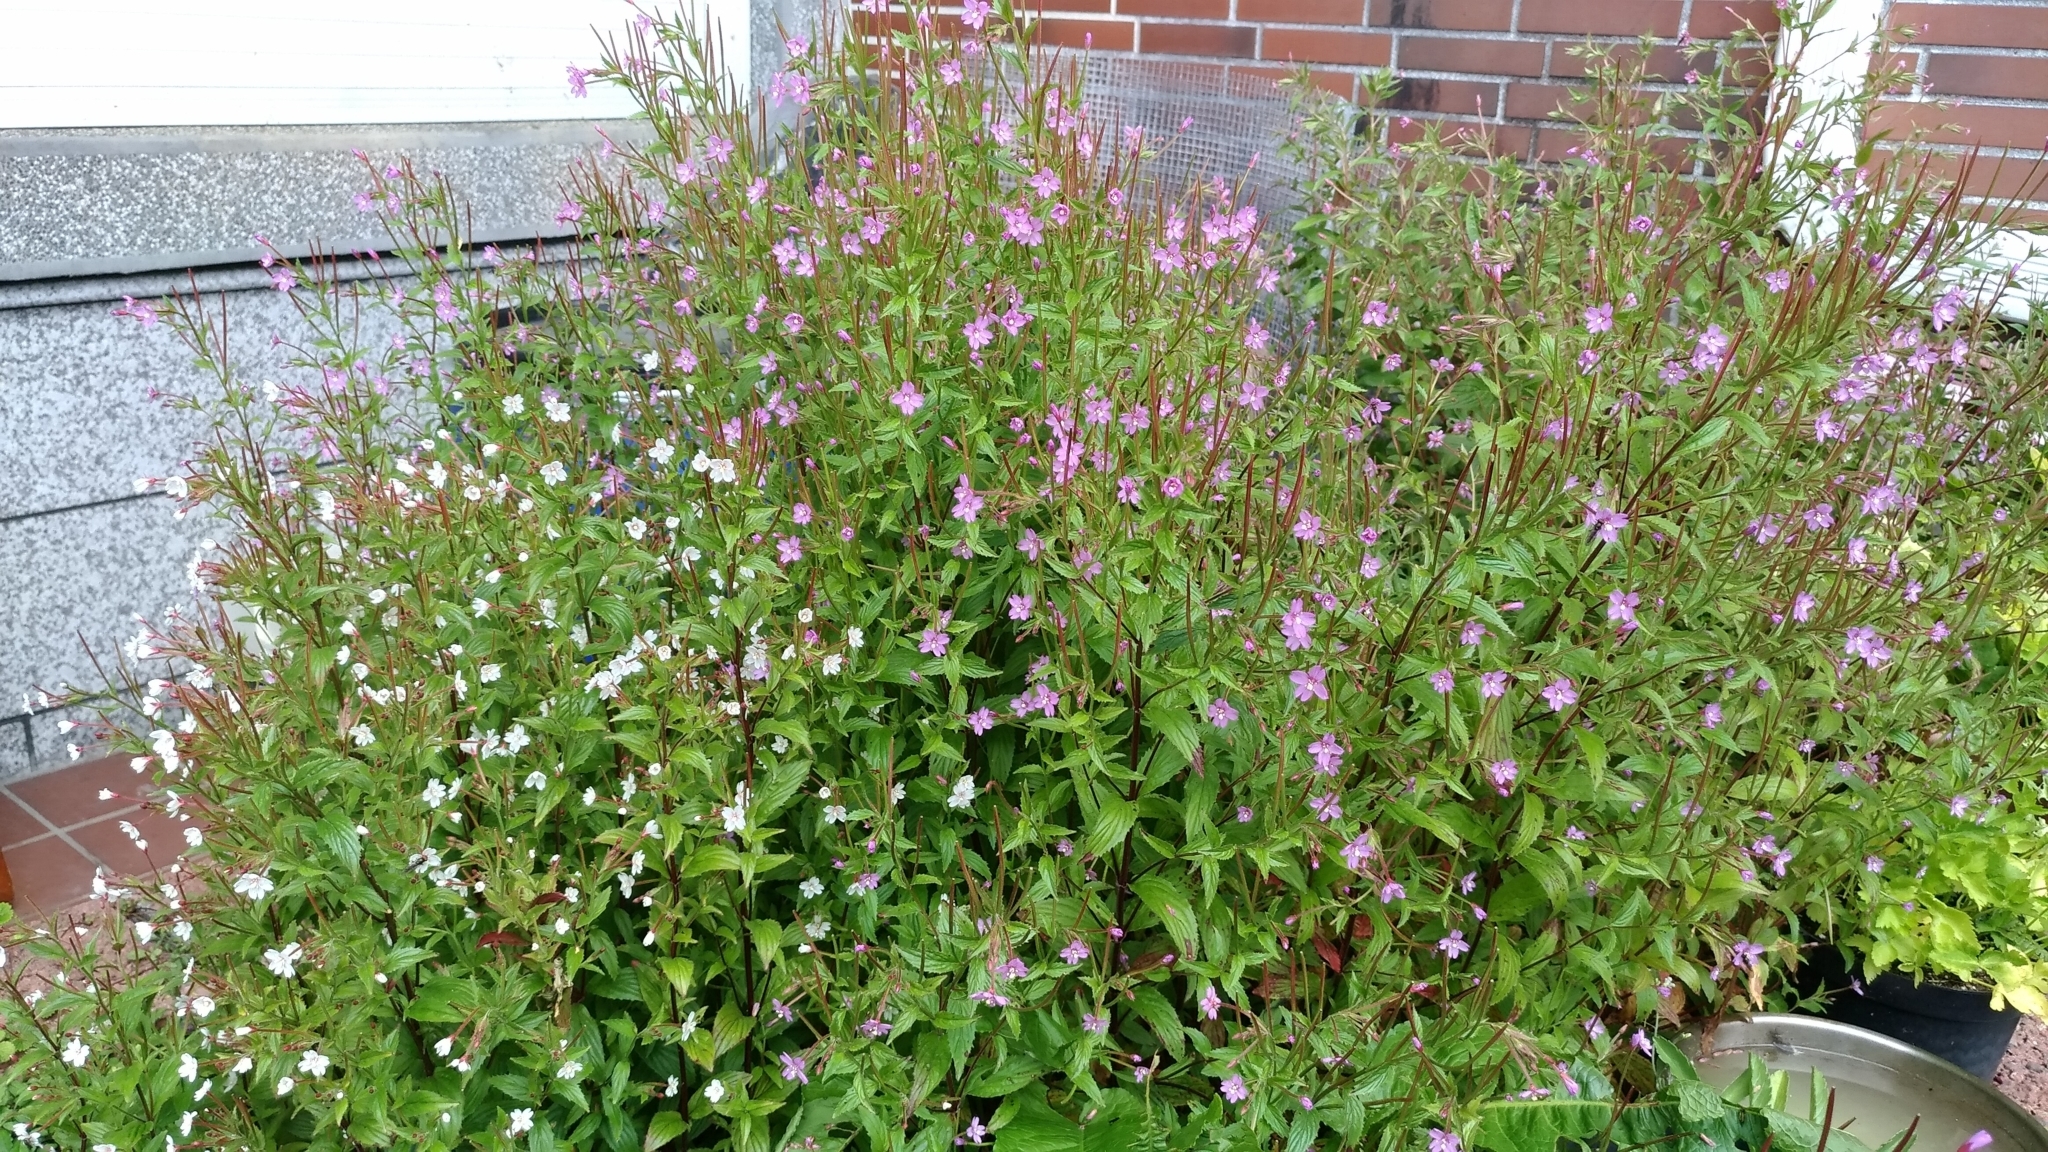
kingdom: Plantae
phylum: Tracheophyta
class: Magnoliopsida
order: Myrtales
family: Onagraceae
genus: Epilobium
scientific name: Epilobium brevifolium
